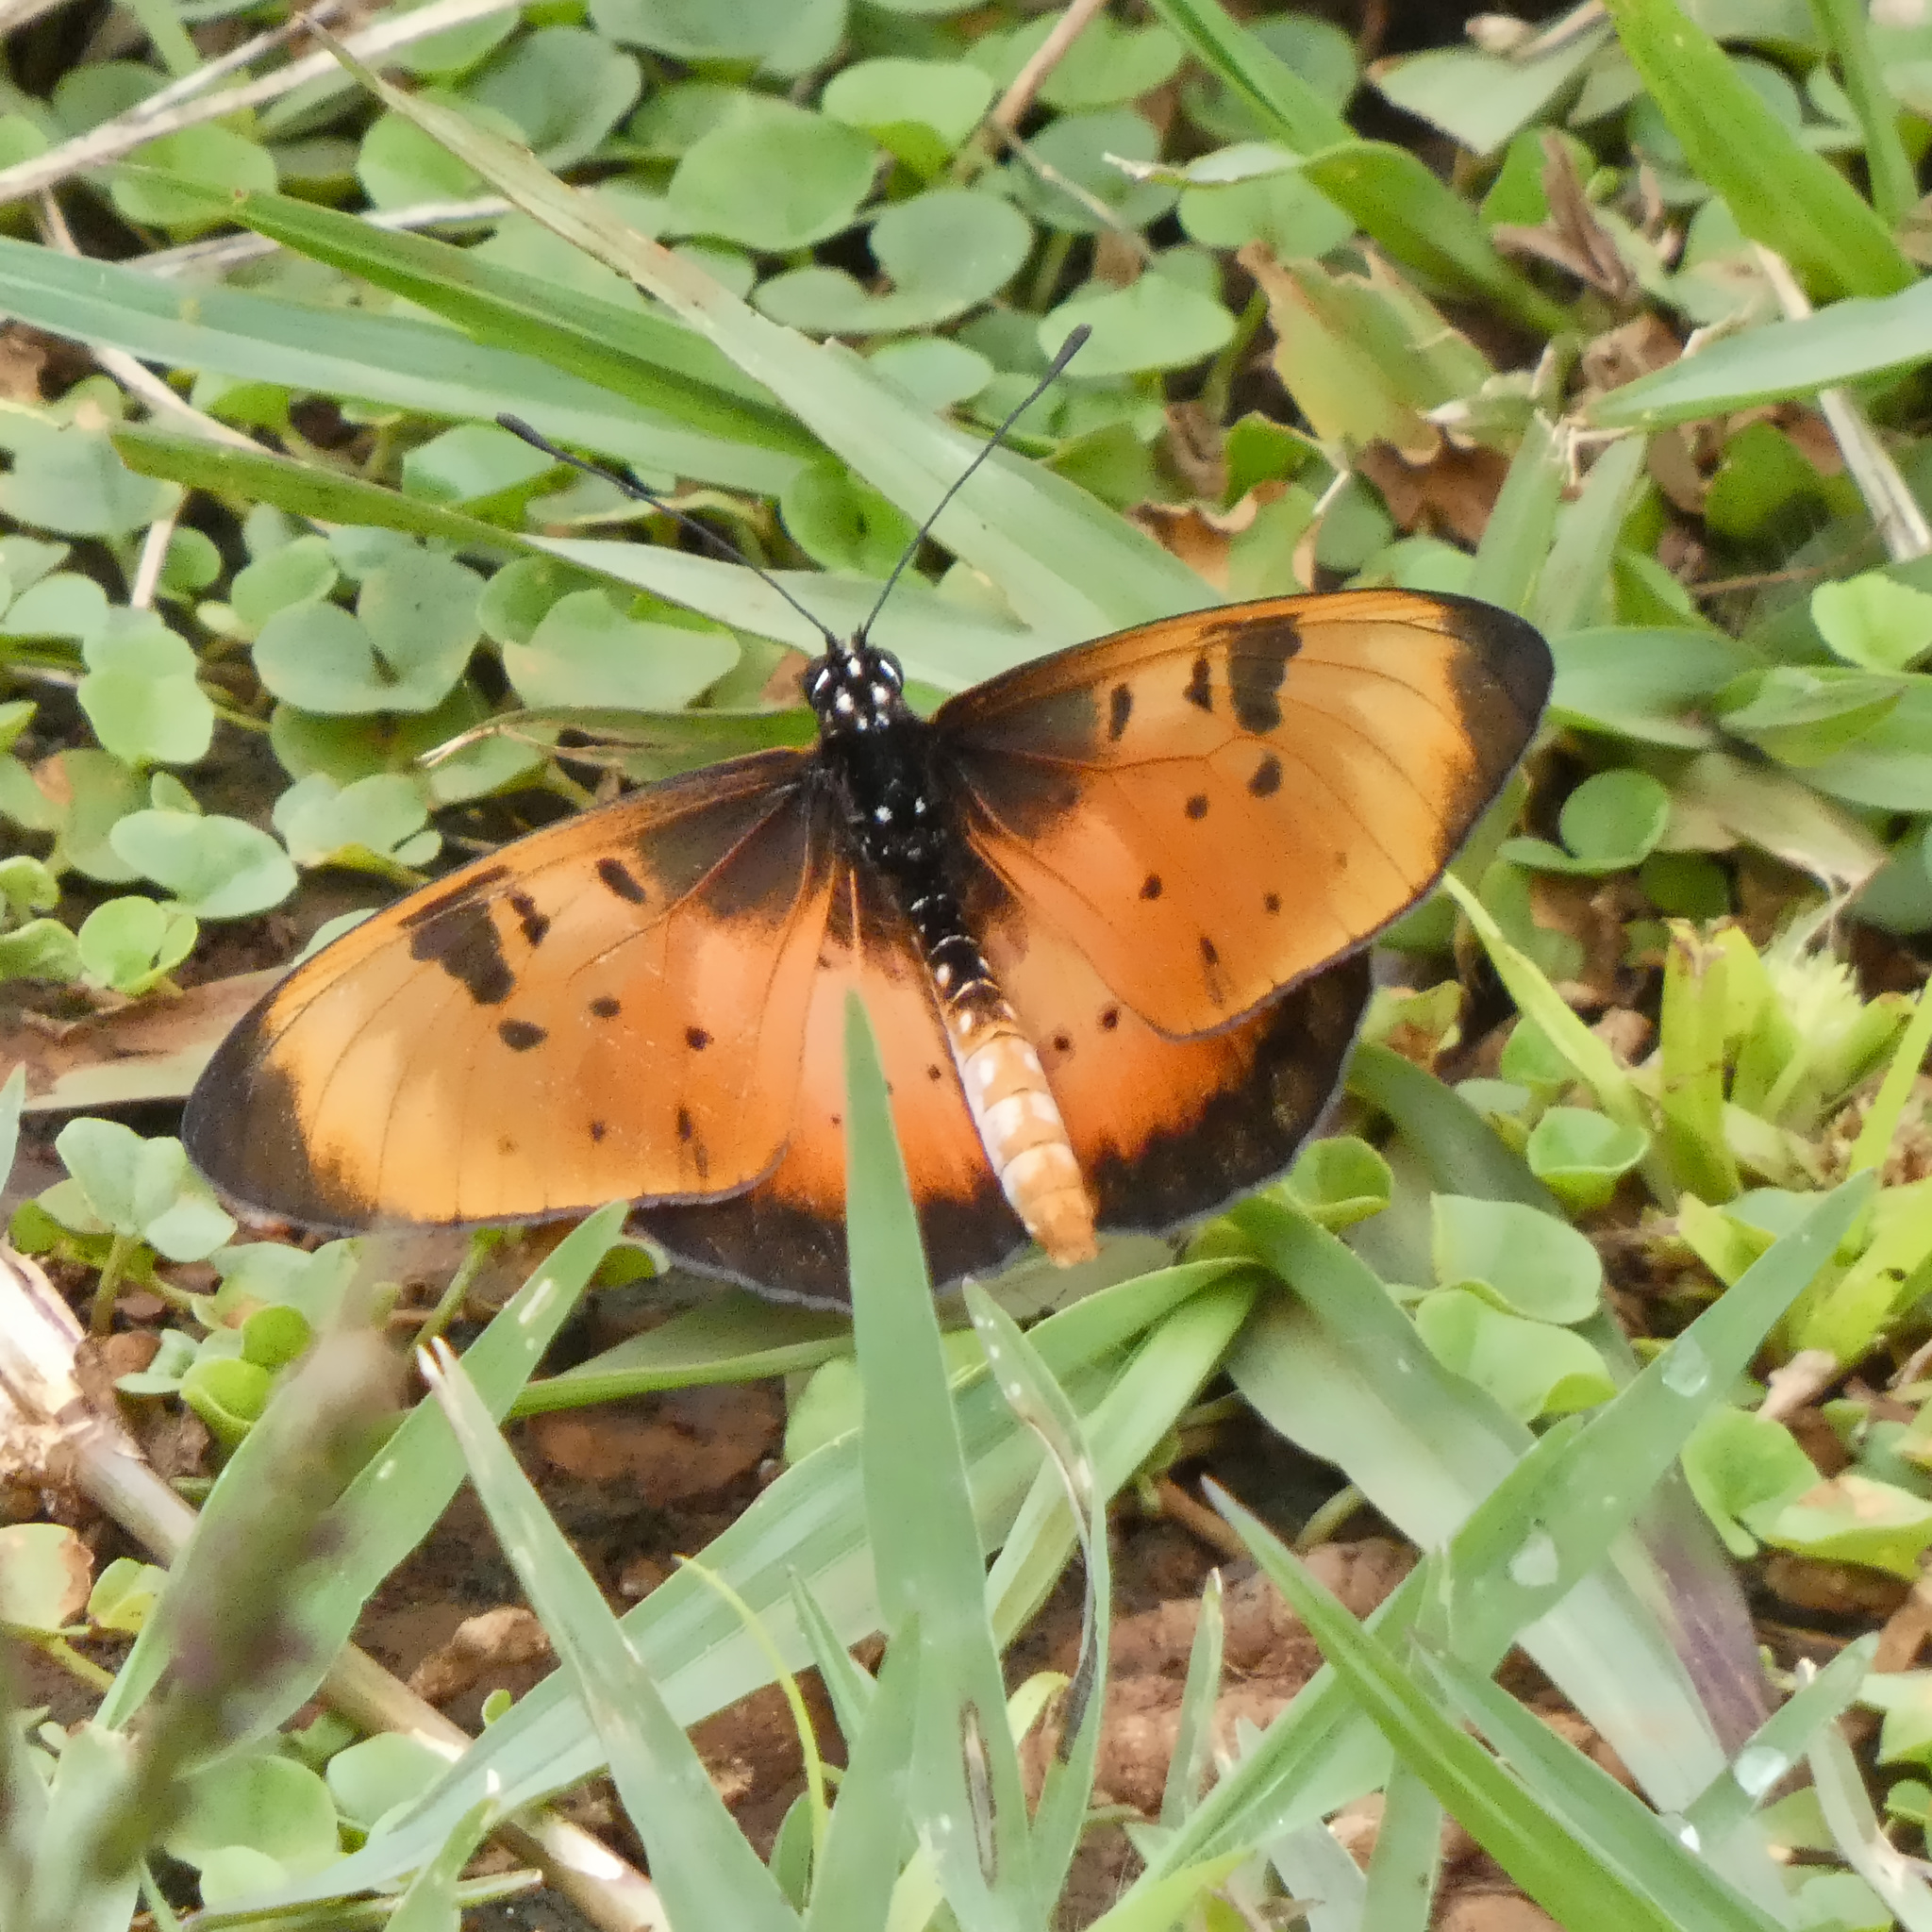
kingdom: Animalia
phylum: Arthropoda
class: Insecta
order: Lepidoptera
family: Nymphalidae
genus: Stephenia
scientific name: Stephenia
